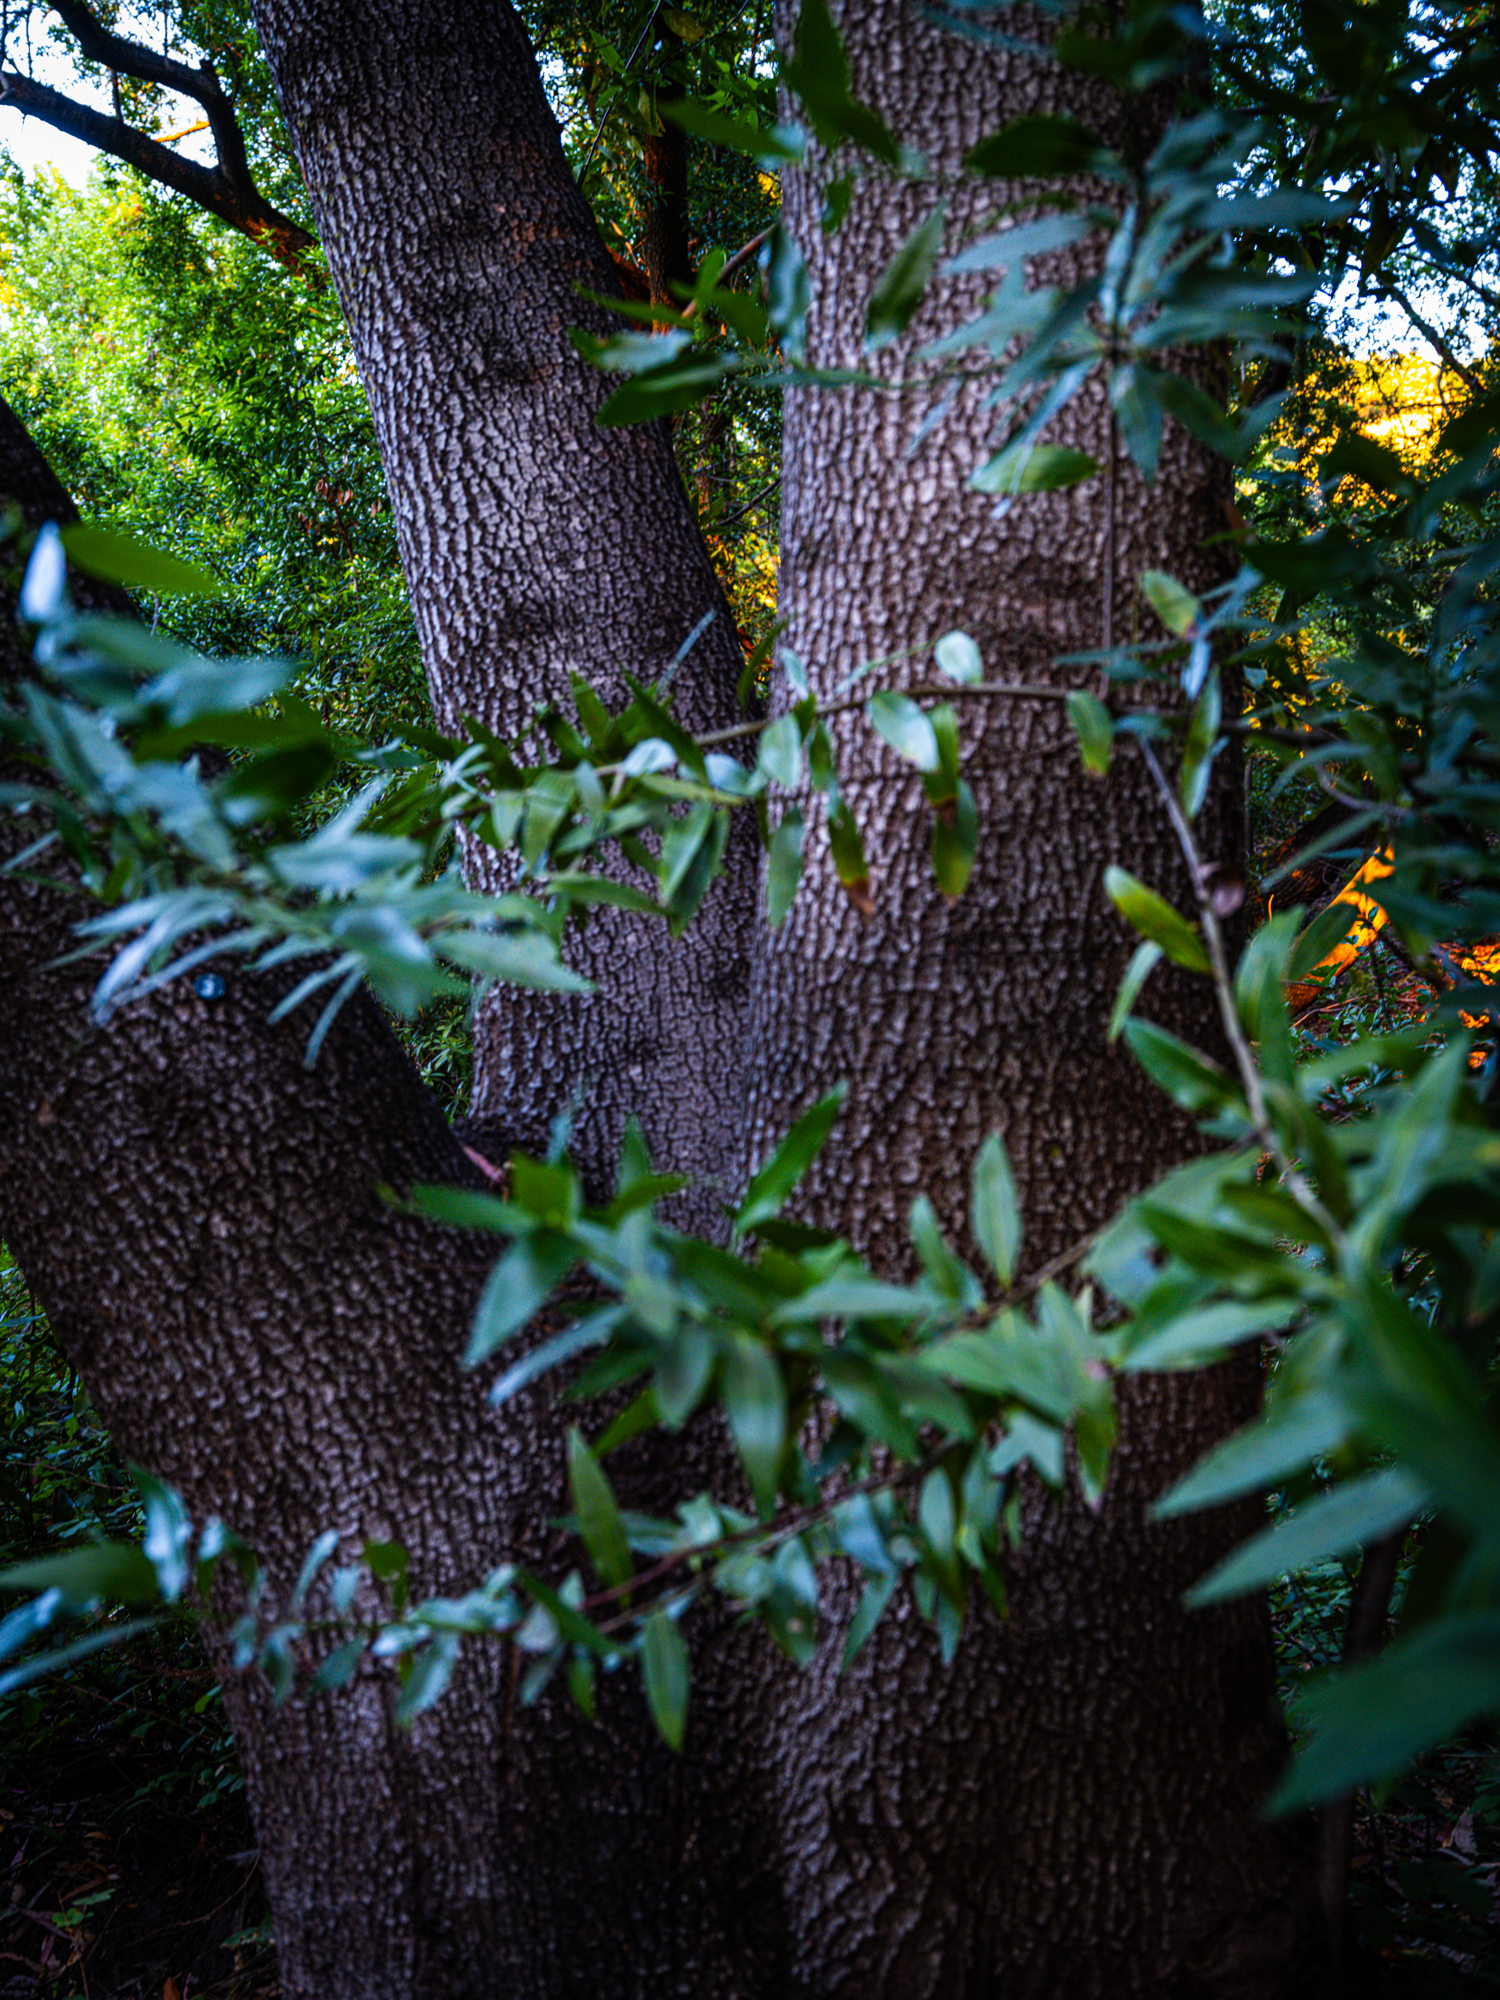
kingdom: Plantae
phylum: Tracheophyta
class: Magnoliopsida
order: Laurales
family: Lauraceae
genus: Umbellularia
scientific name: Umbellularia californica
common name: California bay
